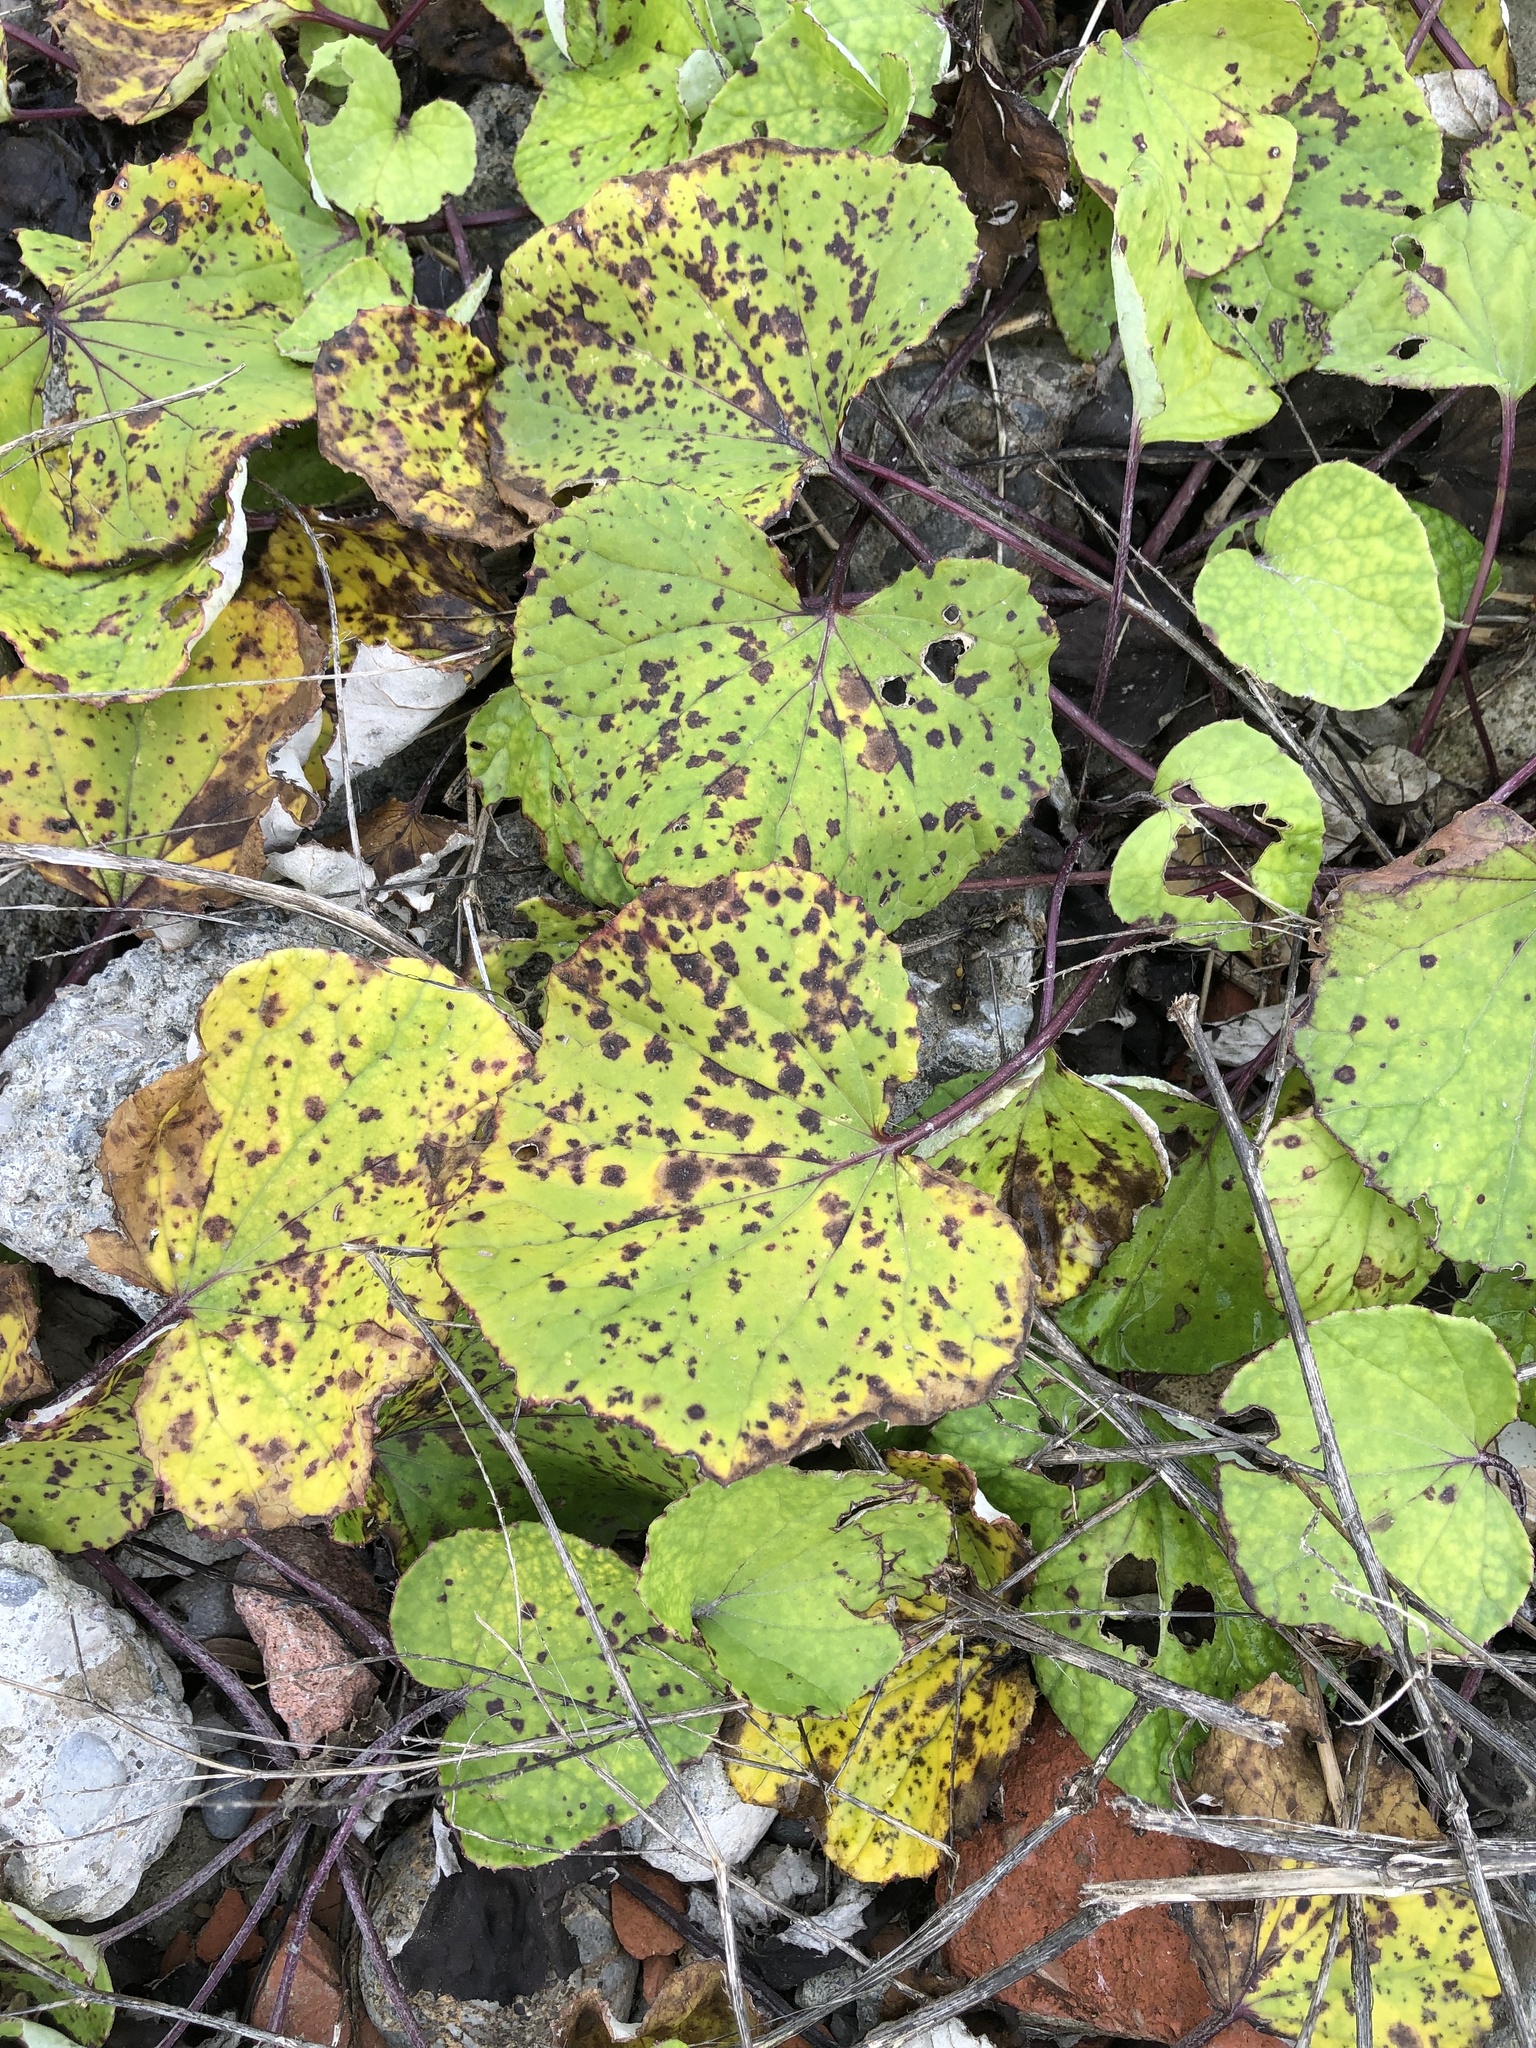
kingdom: Plantae
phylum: Tracheophyta
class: Magnoliopsida
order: Asterales
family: Asteraceae
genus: Tussilago
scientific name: Tussilago farfara
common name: Coltsfoot
